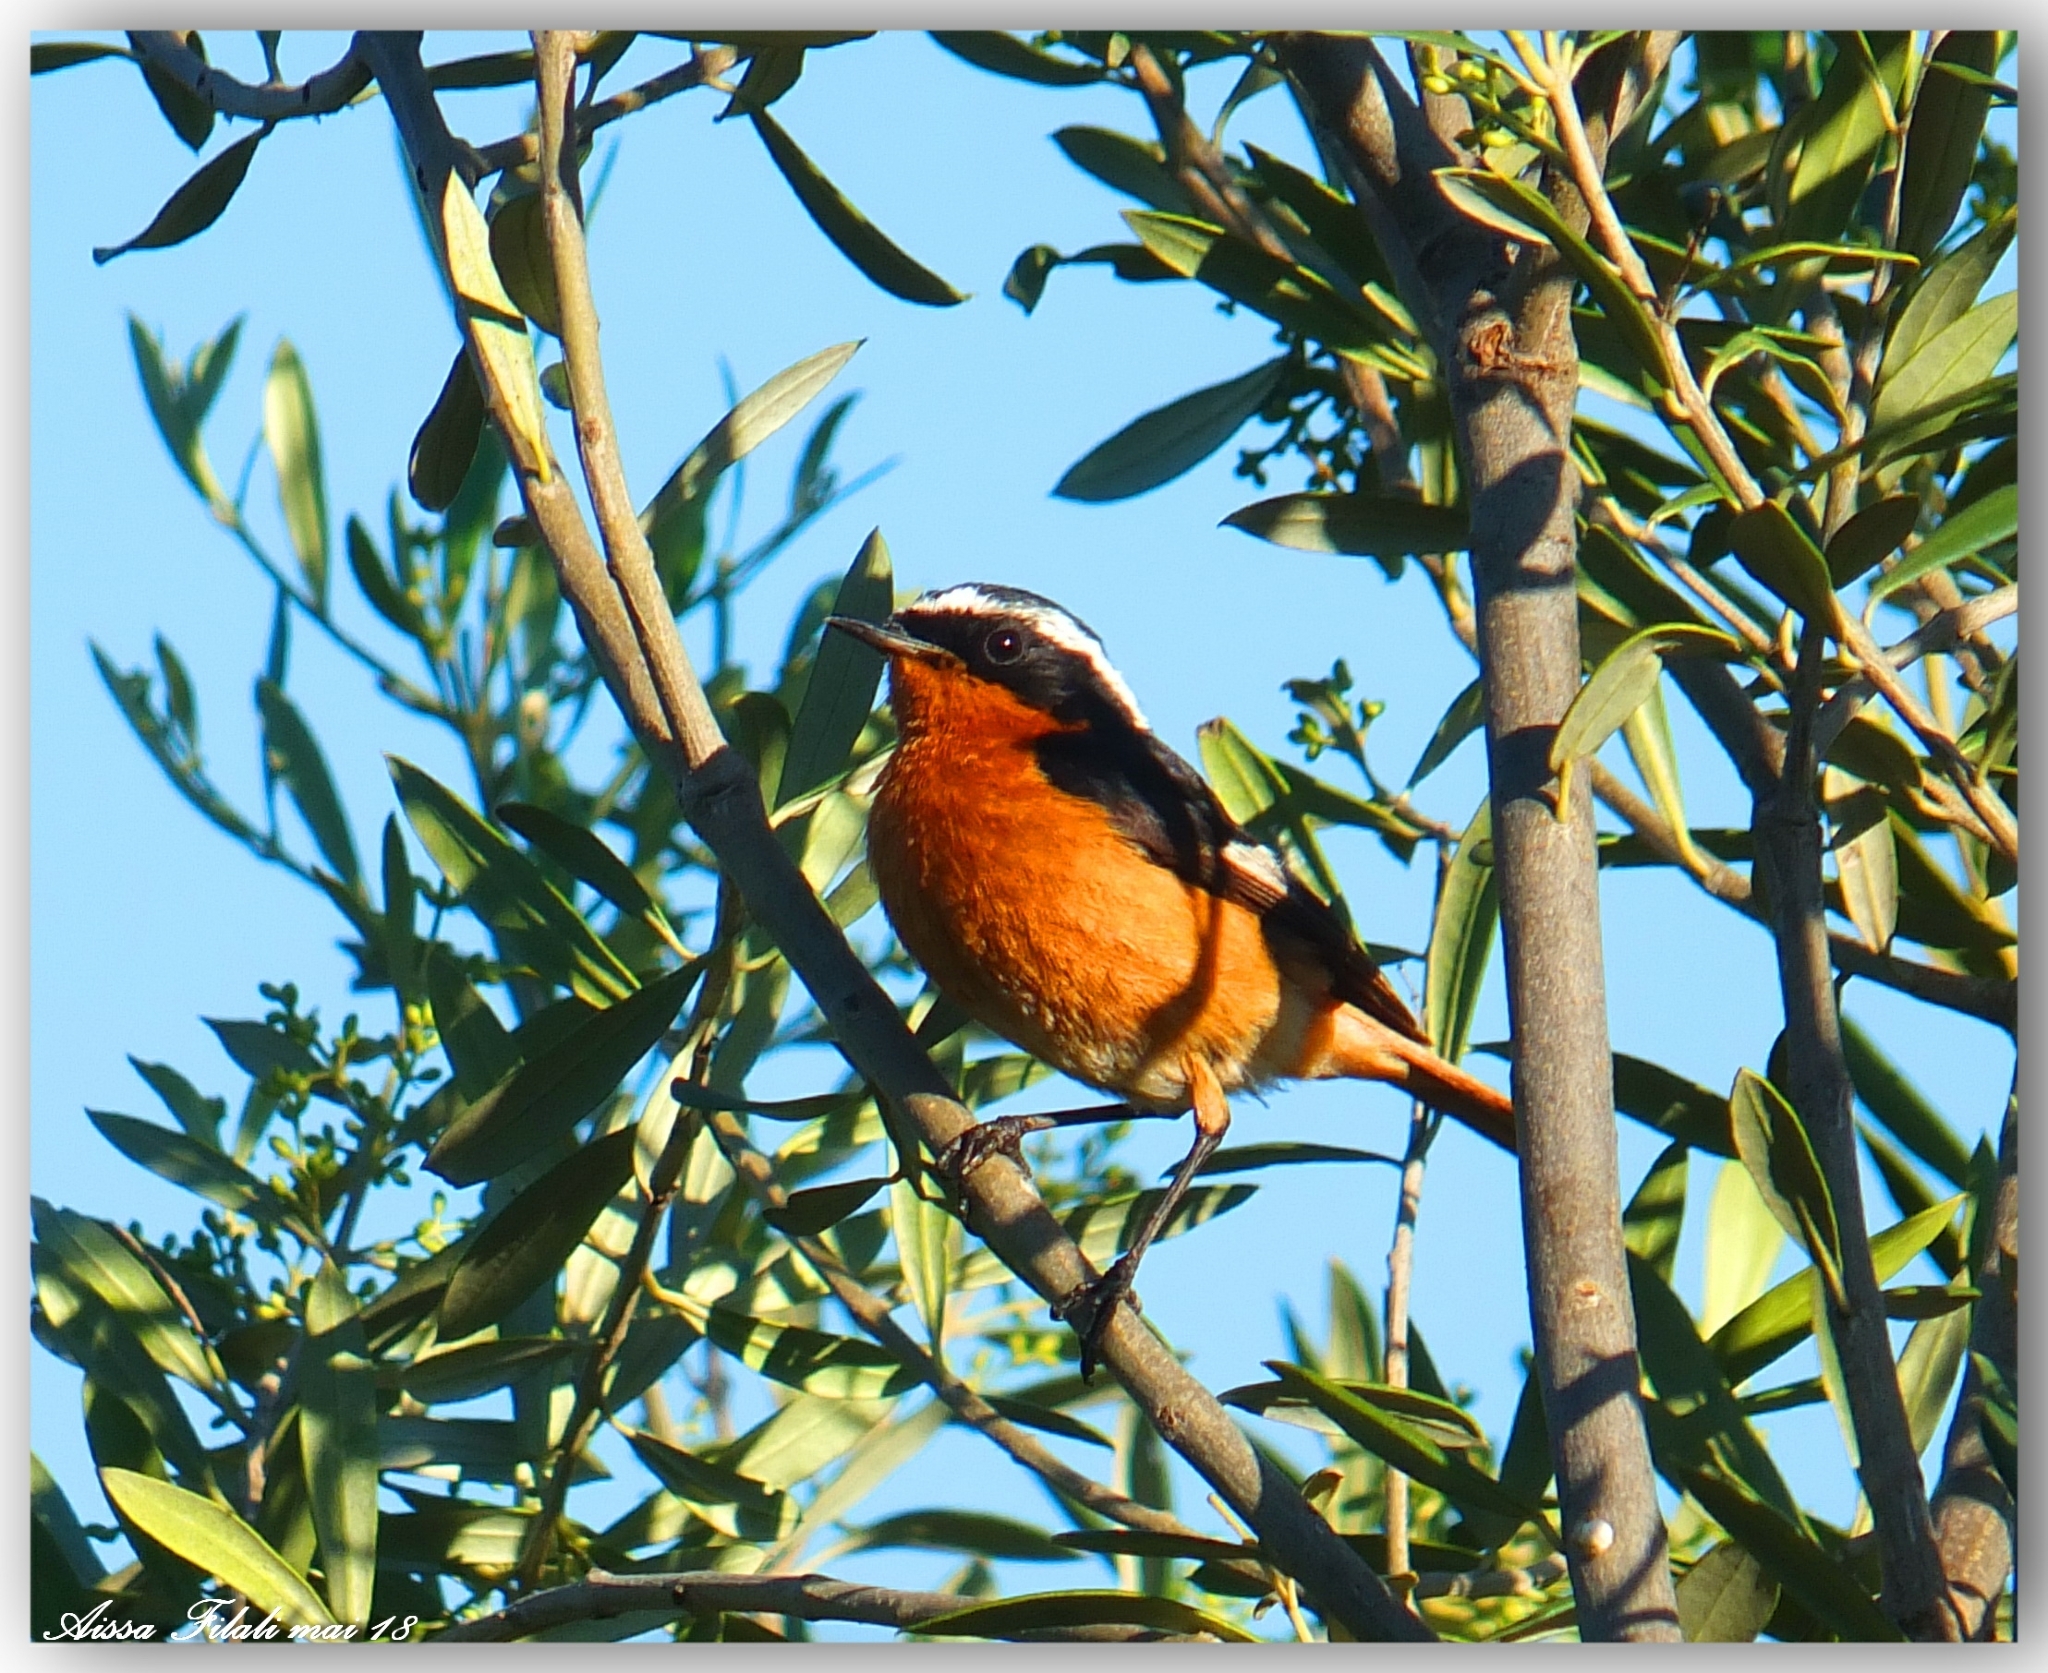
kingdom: Animalia
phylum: Chordata
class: Aves
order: Passeriformes
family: Muscicapidae
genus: Phoenicurus
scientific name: Phoenicurus moussieri
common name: Moussier's redstart
